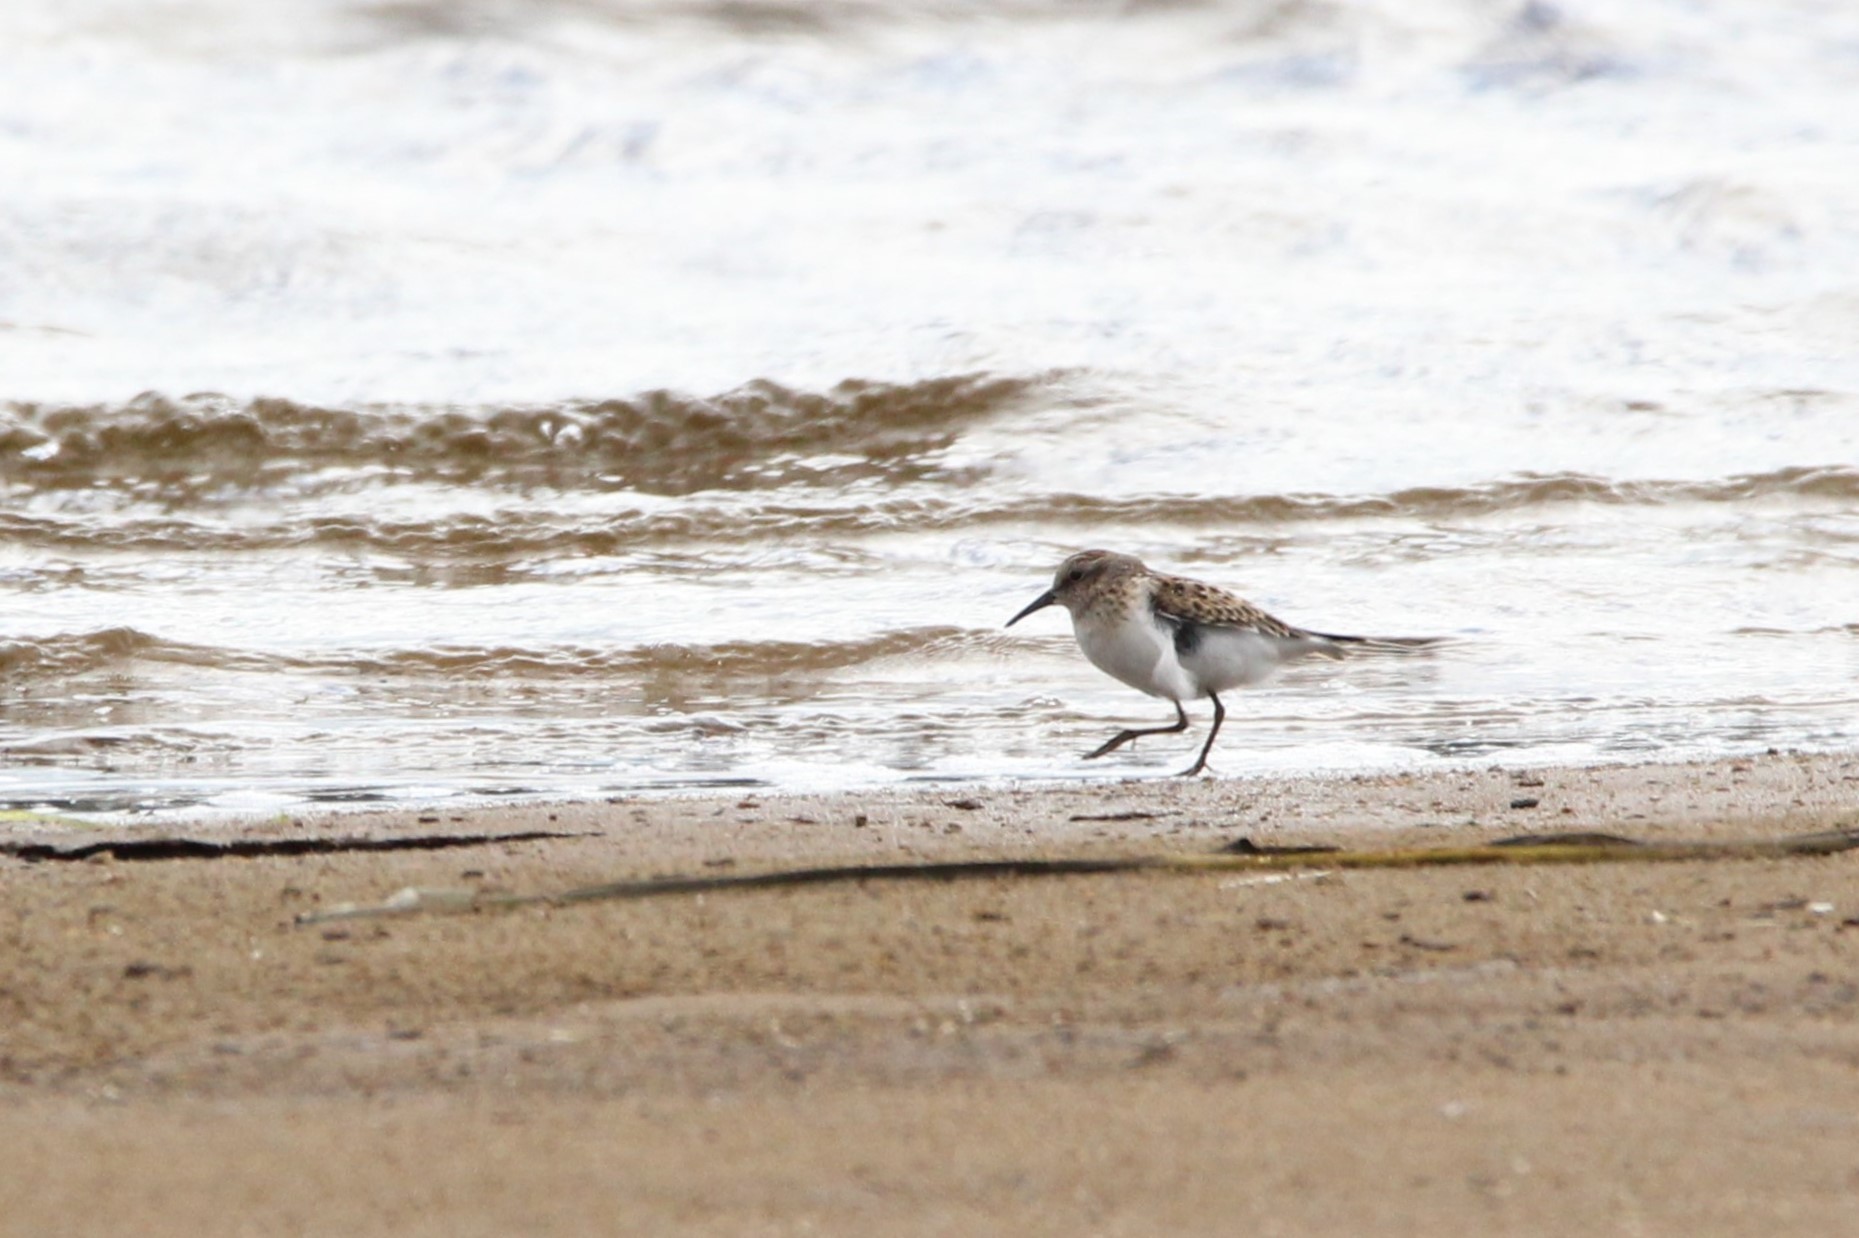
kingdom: Animalia
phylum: Chordata
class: Aves
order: Charadriiformes
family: Scolopacidae
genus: Calidris
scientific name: Calidris minutilla
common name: Least sandpiper
